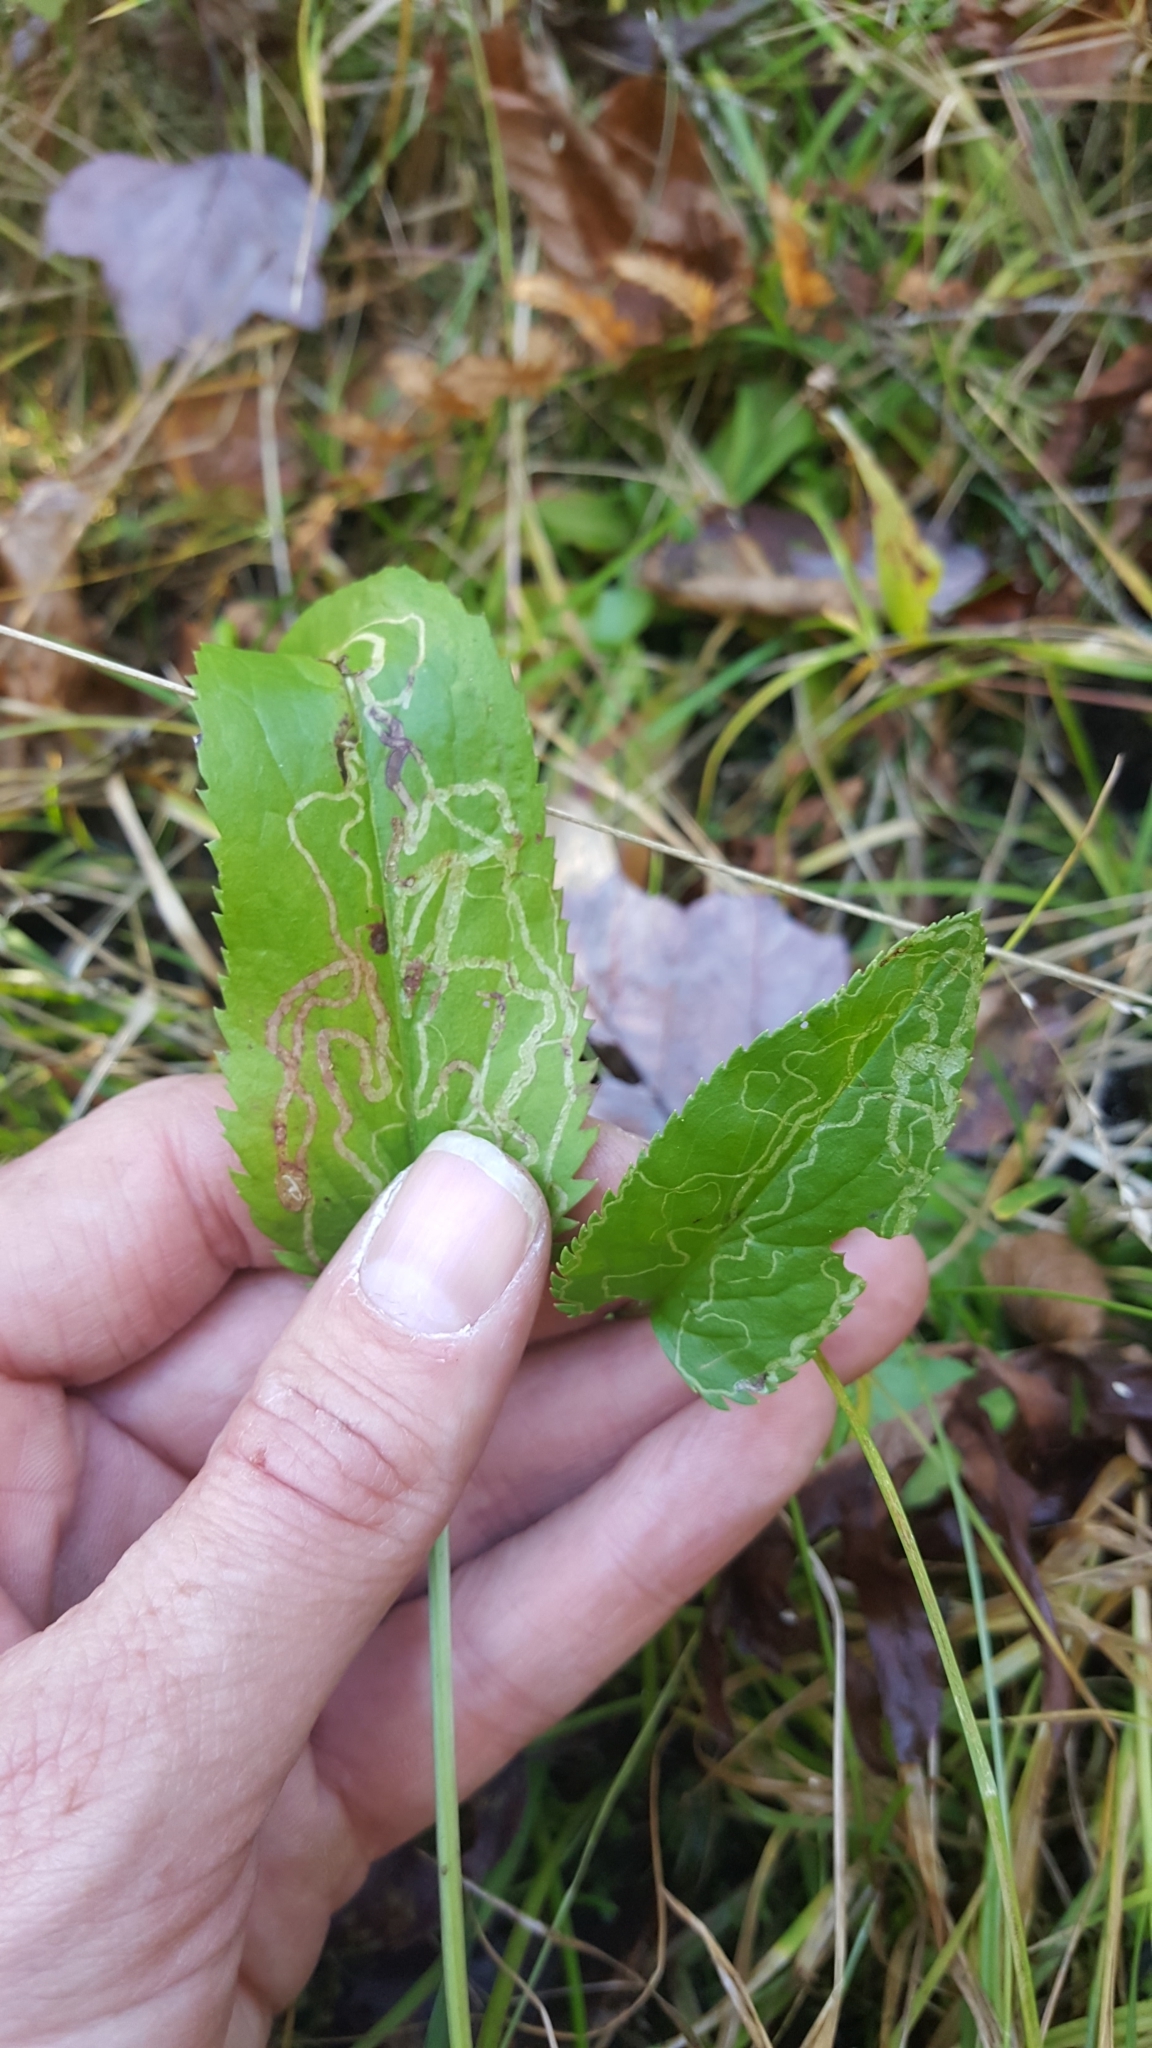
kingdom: Animalia
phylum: Arthropoda
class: Insecta
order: Lepidoptera
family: Gracillariidae
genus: Phyllocnistis
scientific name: Phyllocnistis insignis
